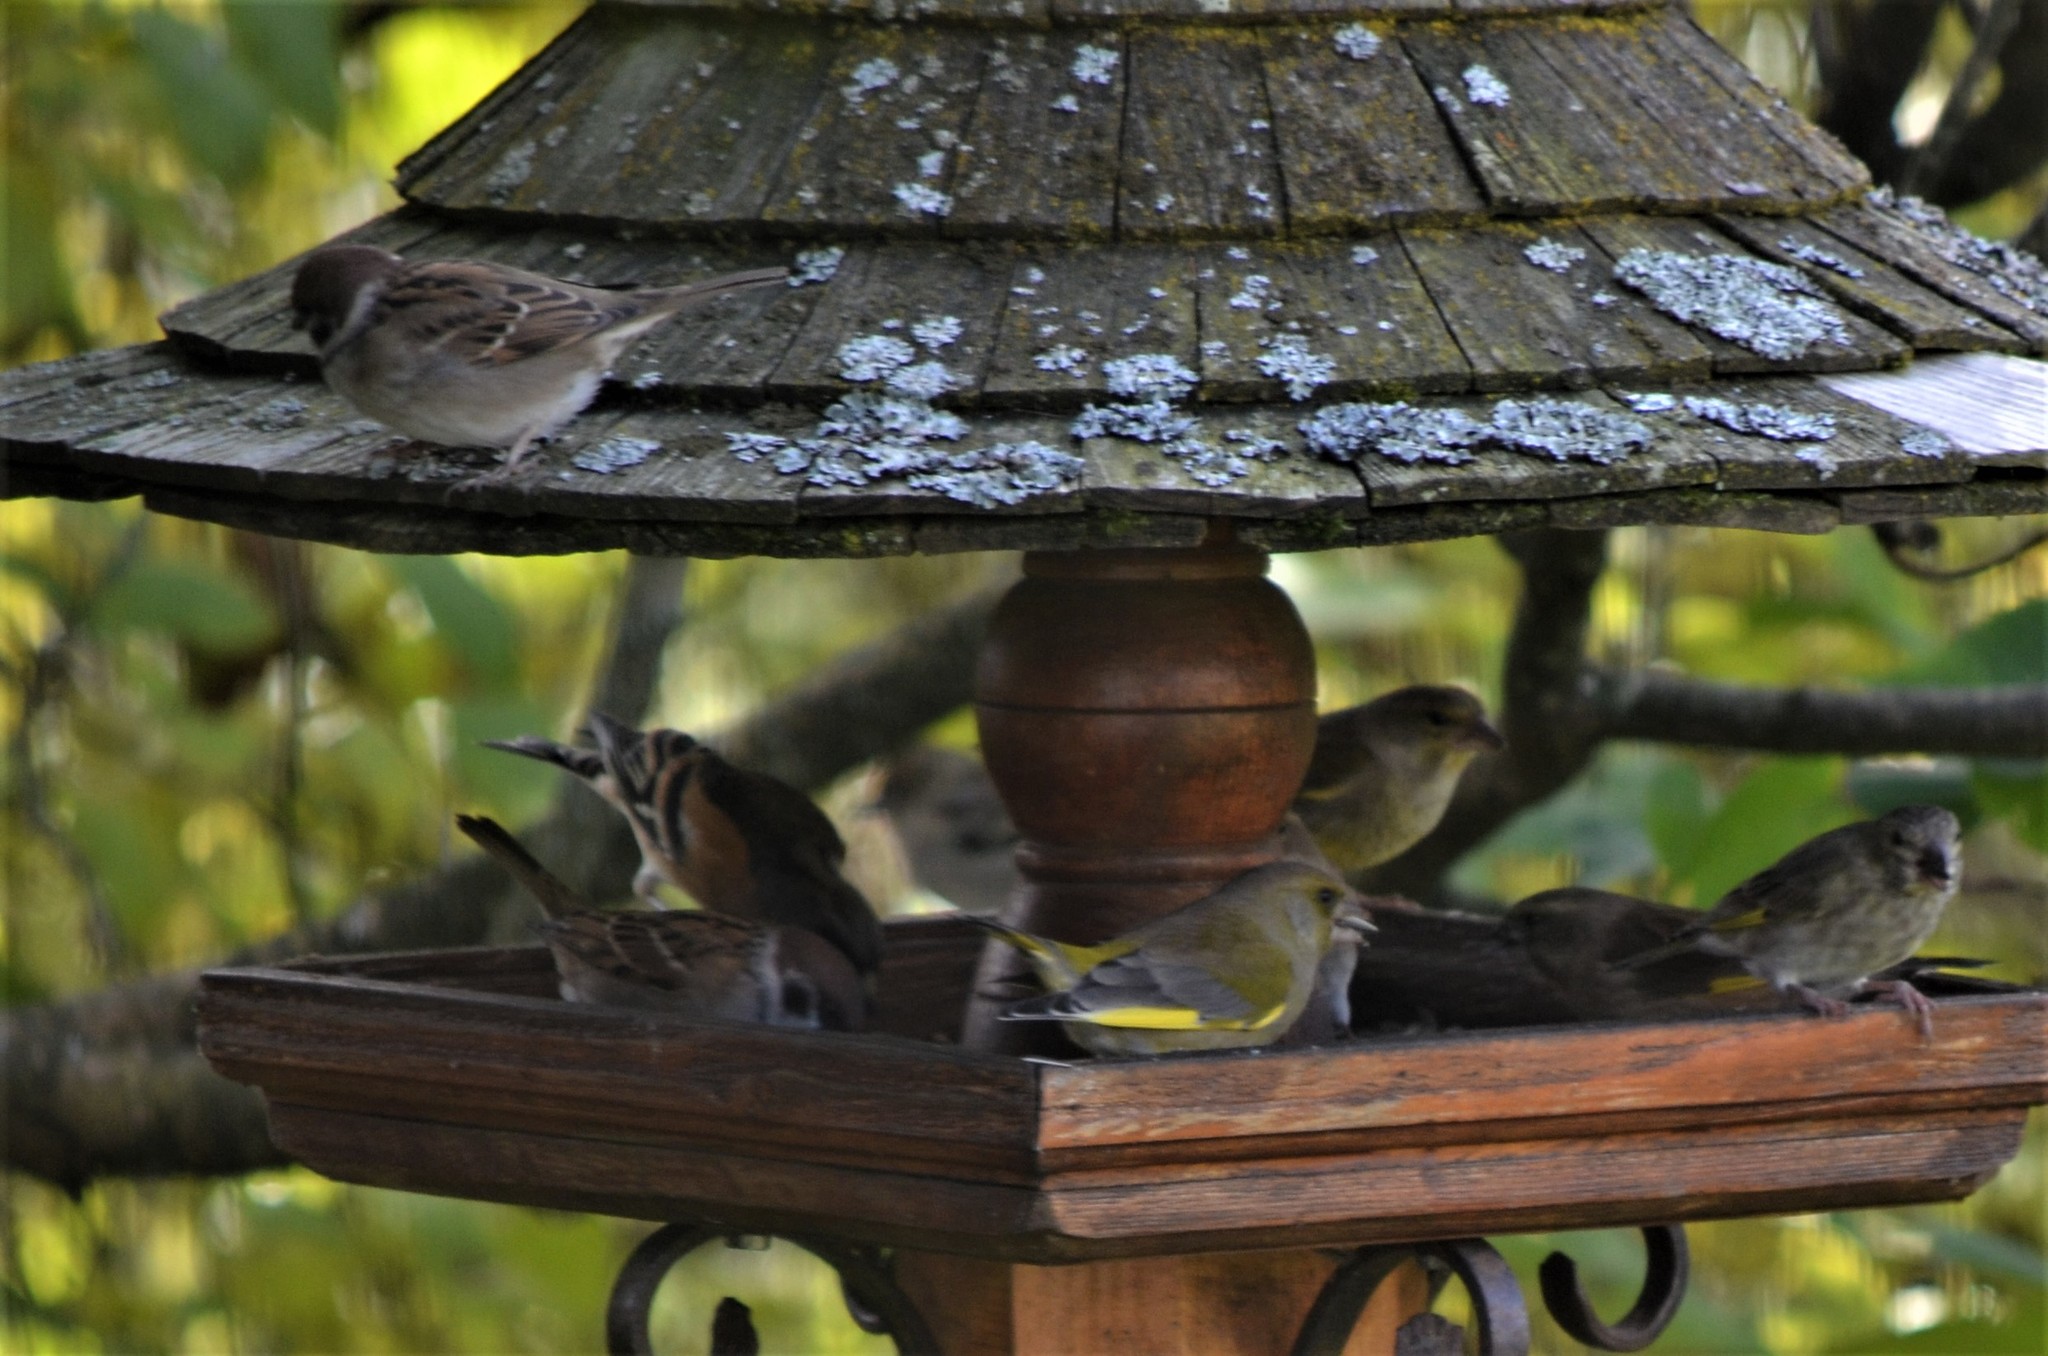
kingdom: Plantae
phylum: Tracheophyta
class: Liliopsida
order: Poales
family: Poaceae
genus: Chloris
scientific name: Chloris chloris
